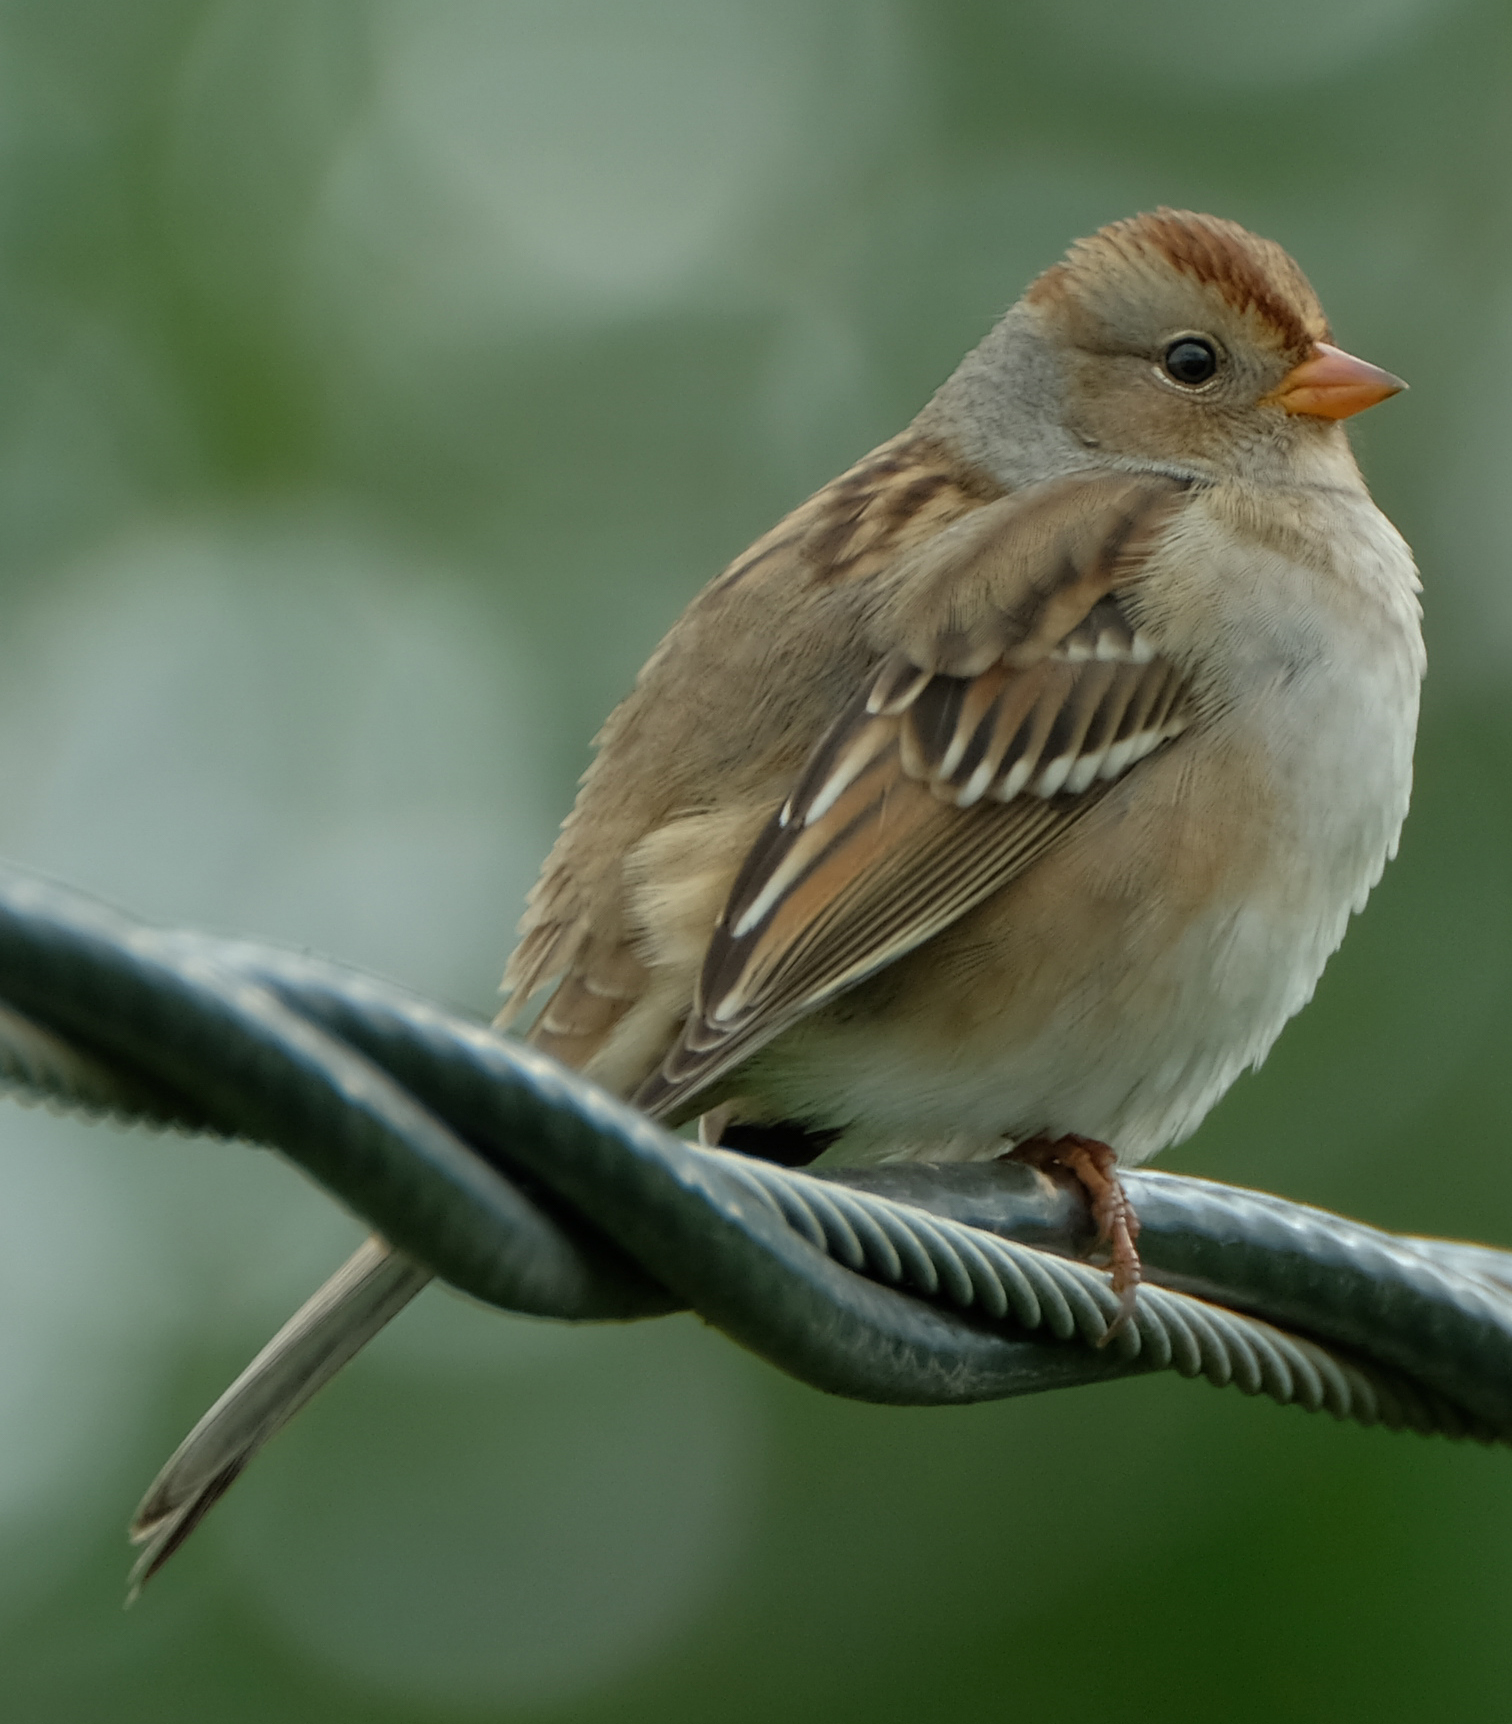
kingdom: Animalia
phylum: Chordata
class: Aves
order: Passeriformes
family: Passerellidae
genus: Zonotrichia
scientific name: Zonotrichia leucophrys
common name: White-crowned sparrow
